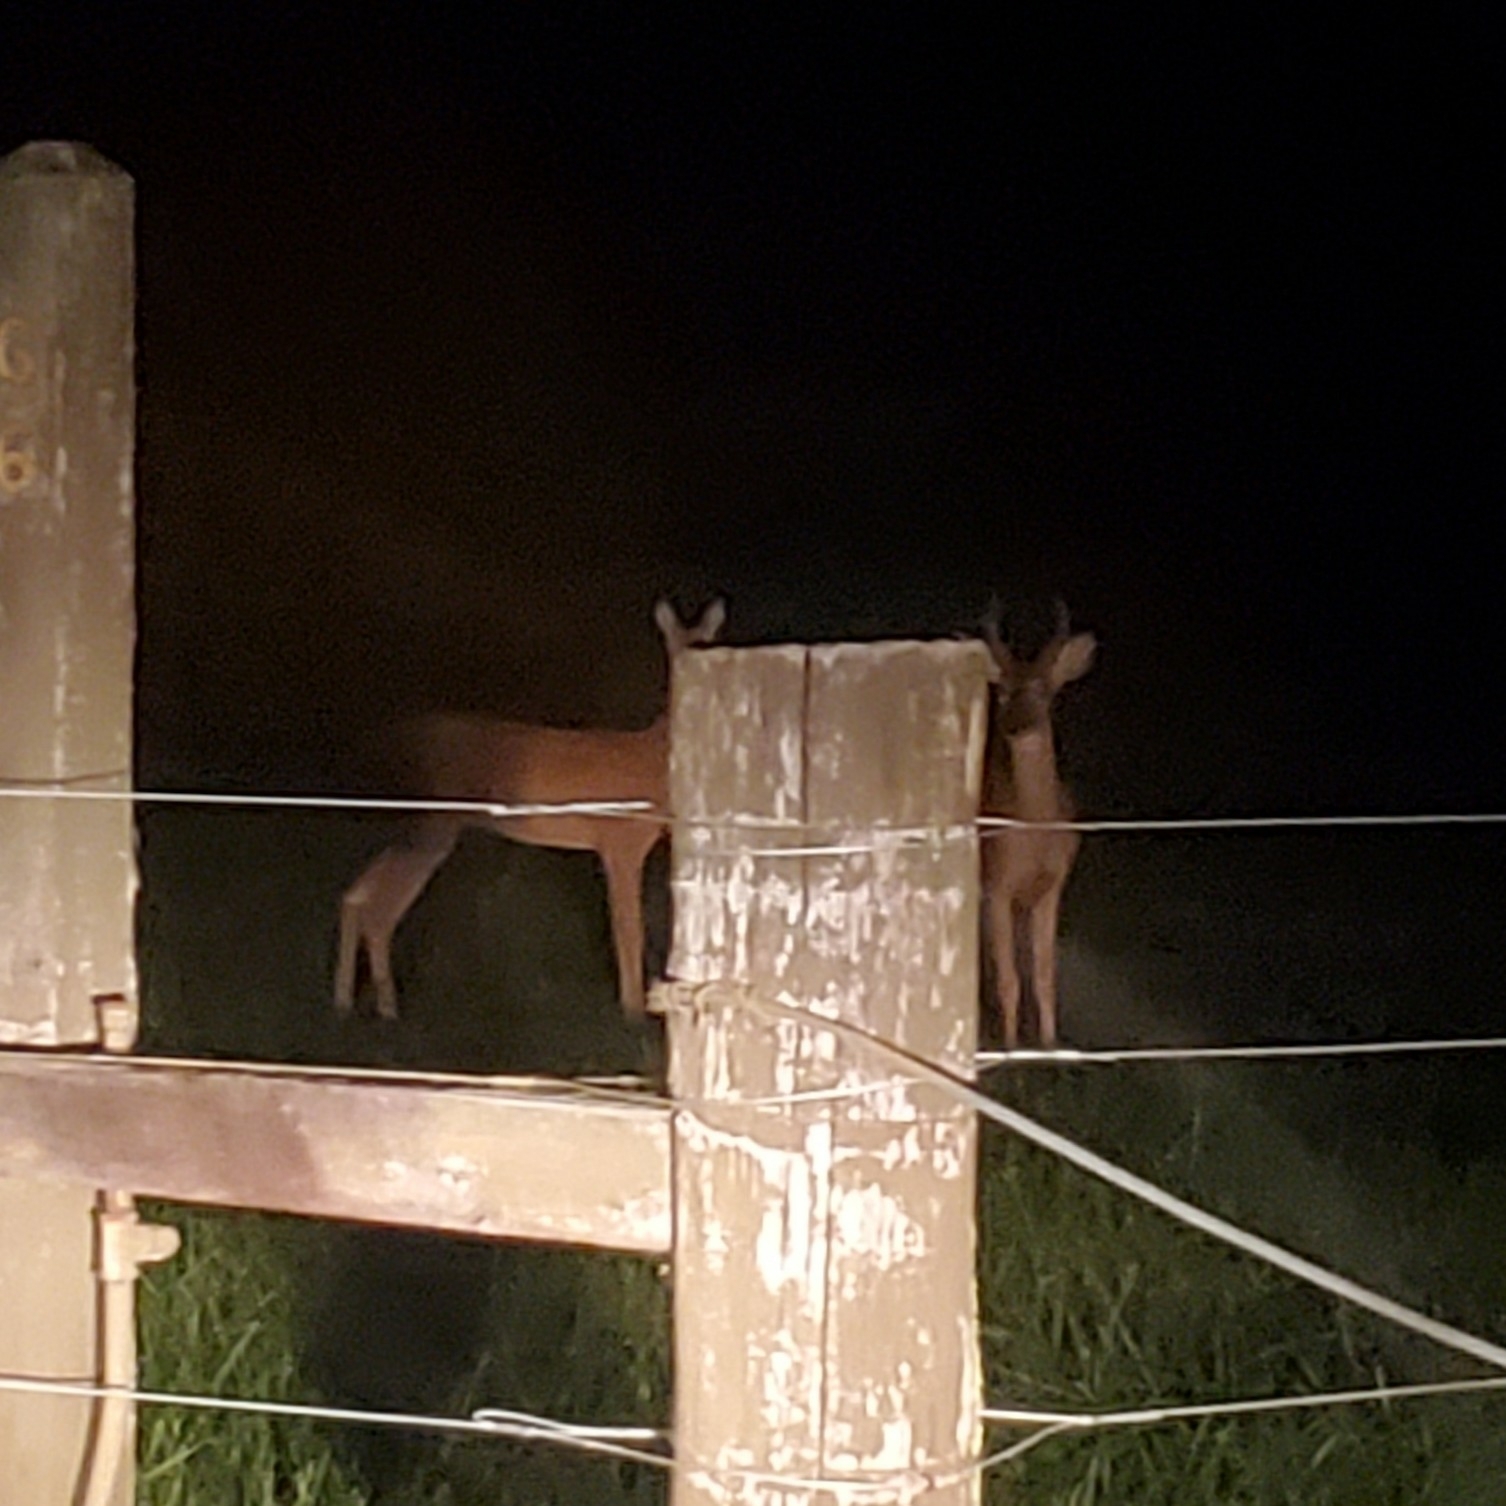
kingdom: Animalia
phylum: Chordata
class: Mammalia
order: Artiodactyla
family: Cervidae
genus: Odocoileus
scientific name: Odocoileus virginianus
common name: White-tailed deer
